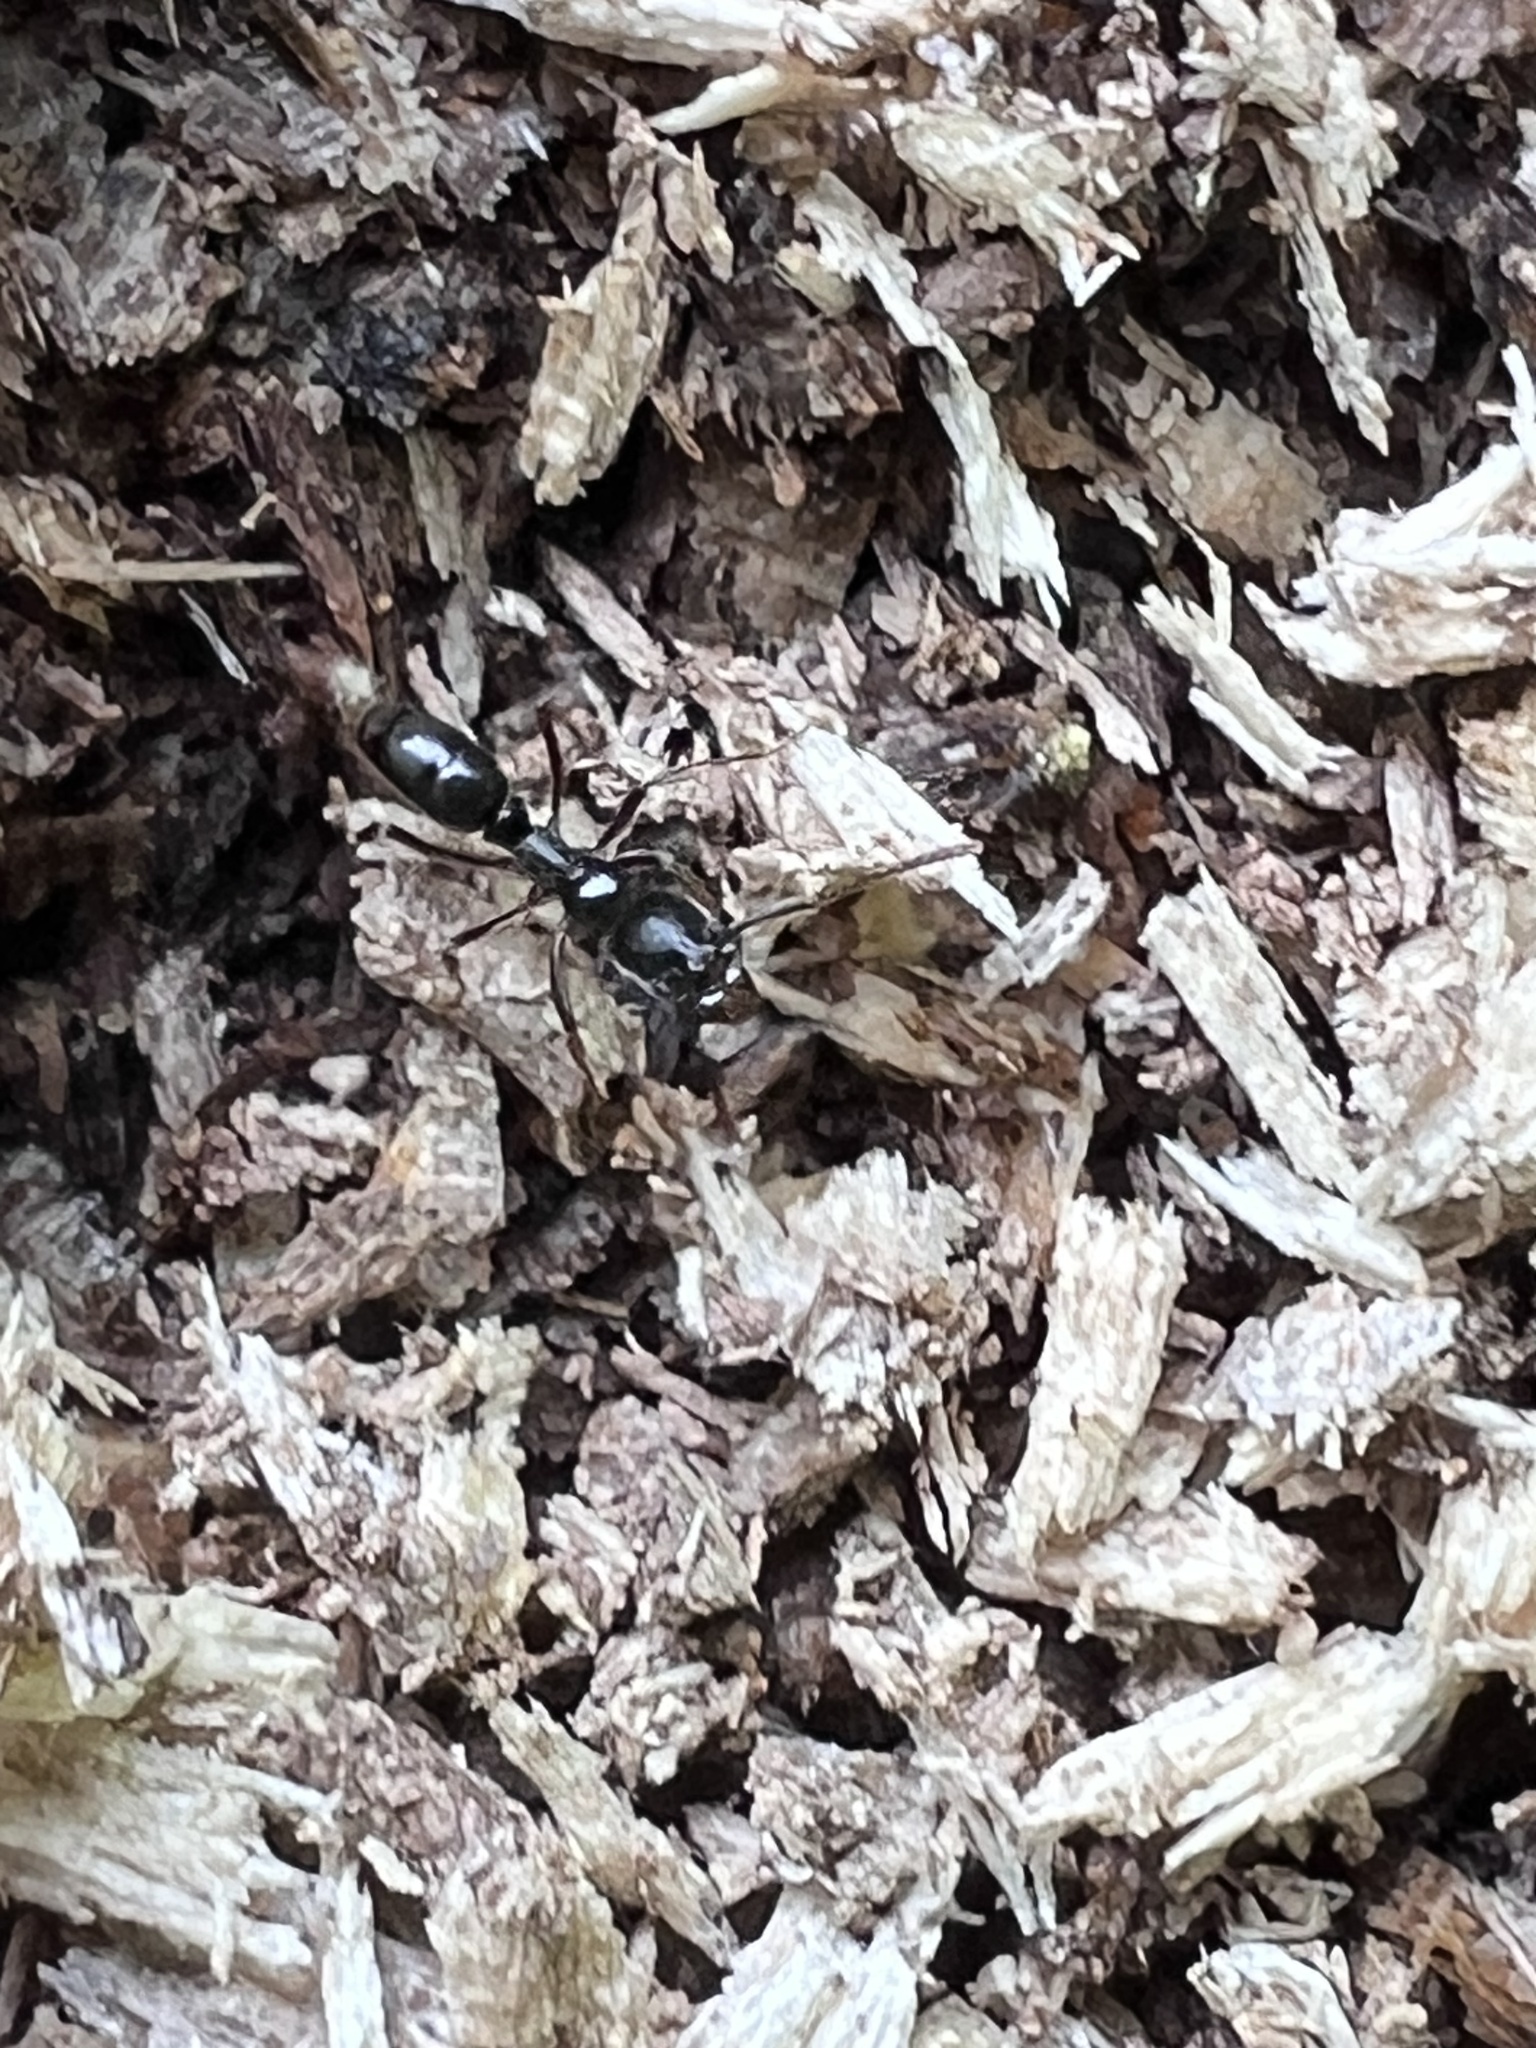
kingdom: Animalia
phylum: Arthropoda
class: Insecta
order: Hymenoptera
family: Formicidae
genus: Pachycondyla
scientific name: Pachycondyla chinensis
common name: Asian needle ant
